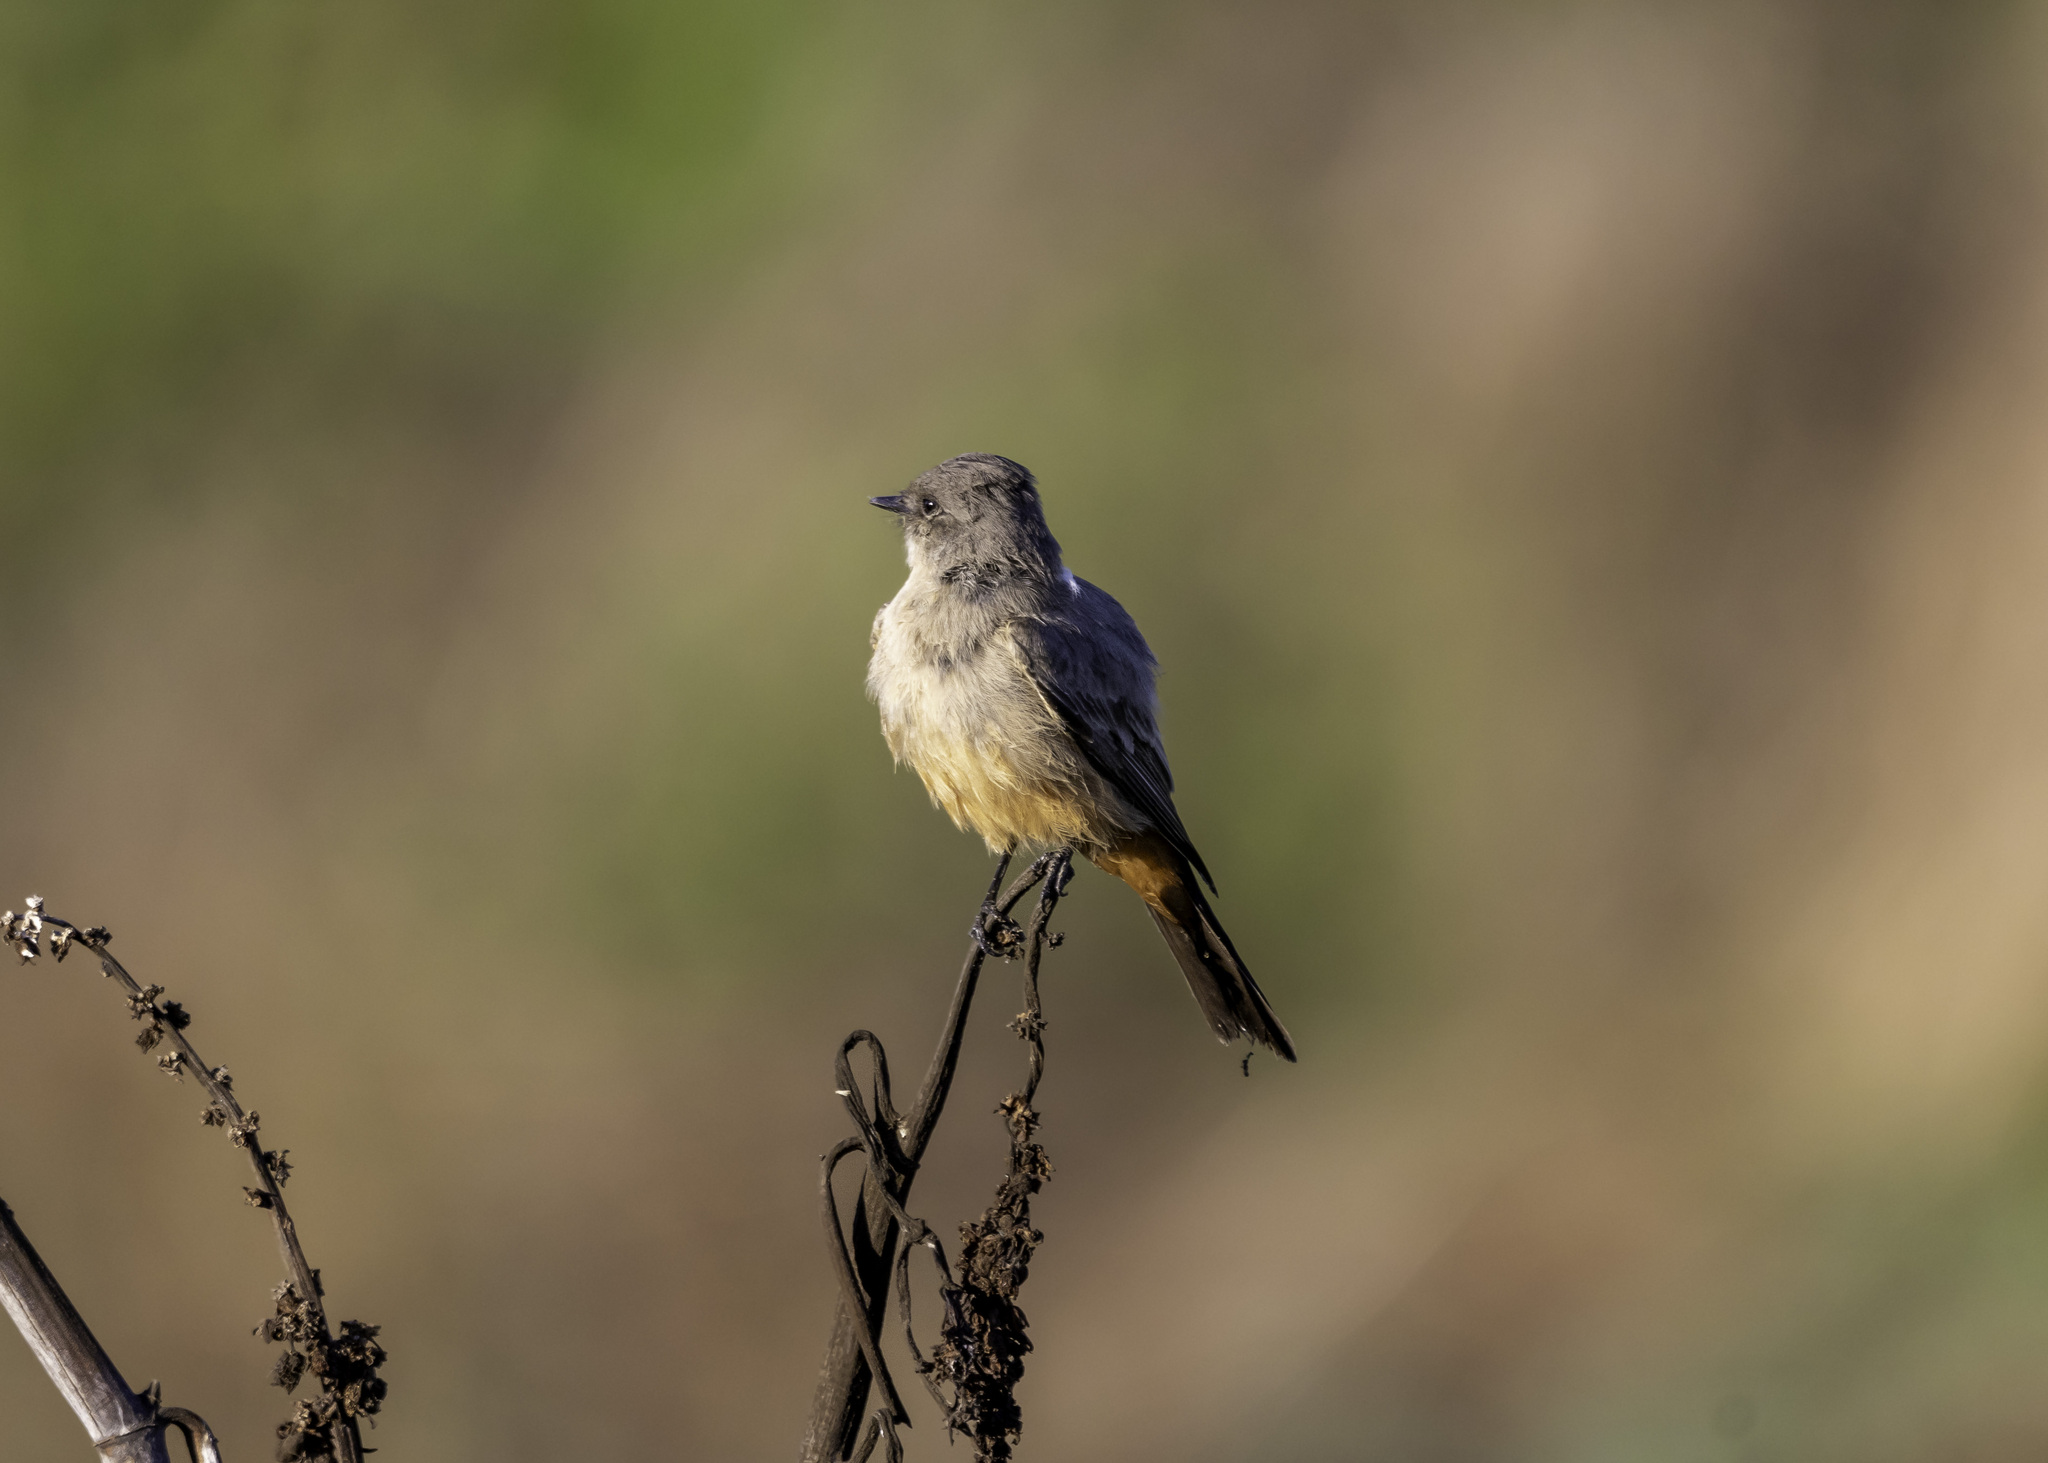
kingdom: Animalia
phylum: Chordata
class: Aves
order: Passeriformes
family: Tyrannidae
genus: Sayornis
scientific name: Sayornis saya
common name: Say's phoebe
